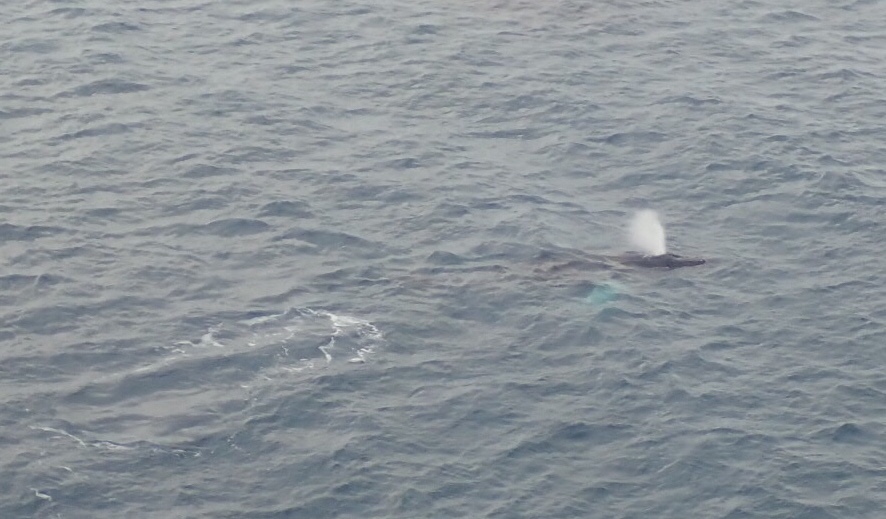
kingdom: Animalia
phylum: Chordata
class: Mammalia
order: Cetacea
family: Balaenopteridae
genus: Megaptera
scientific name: Megaptera novaeangliae
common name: Humpback whale
